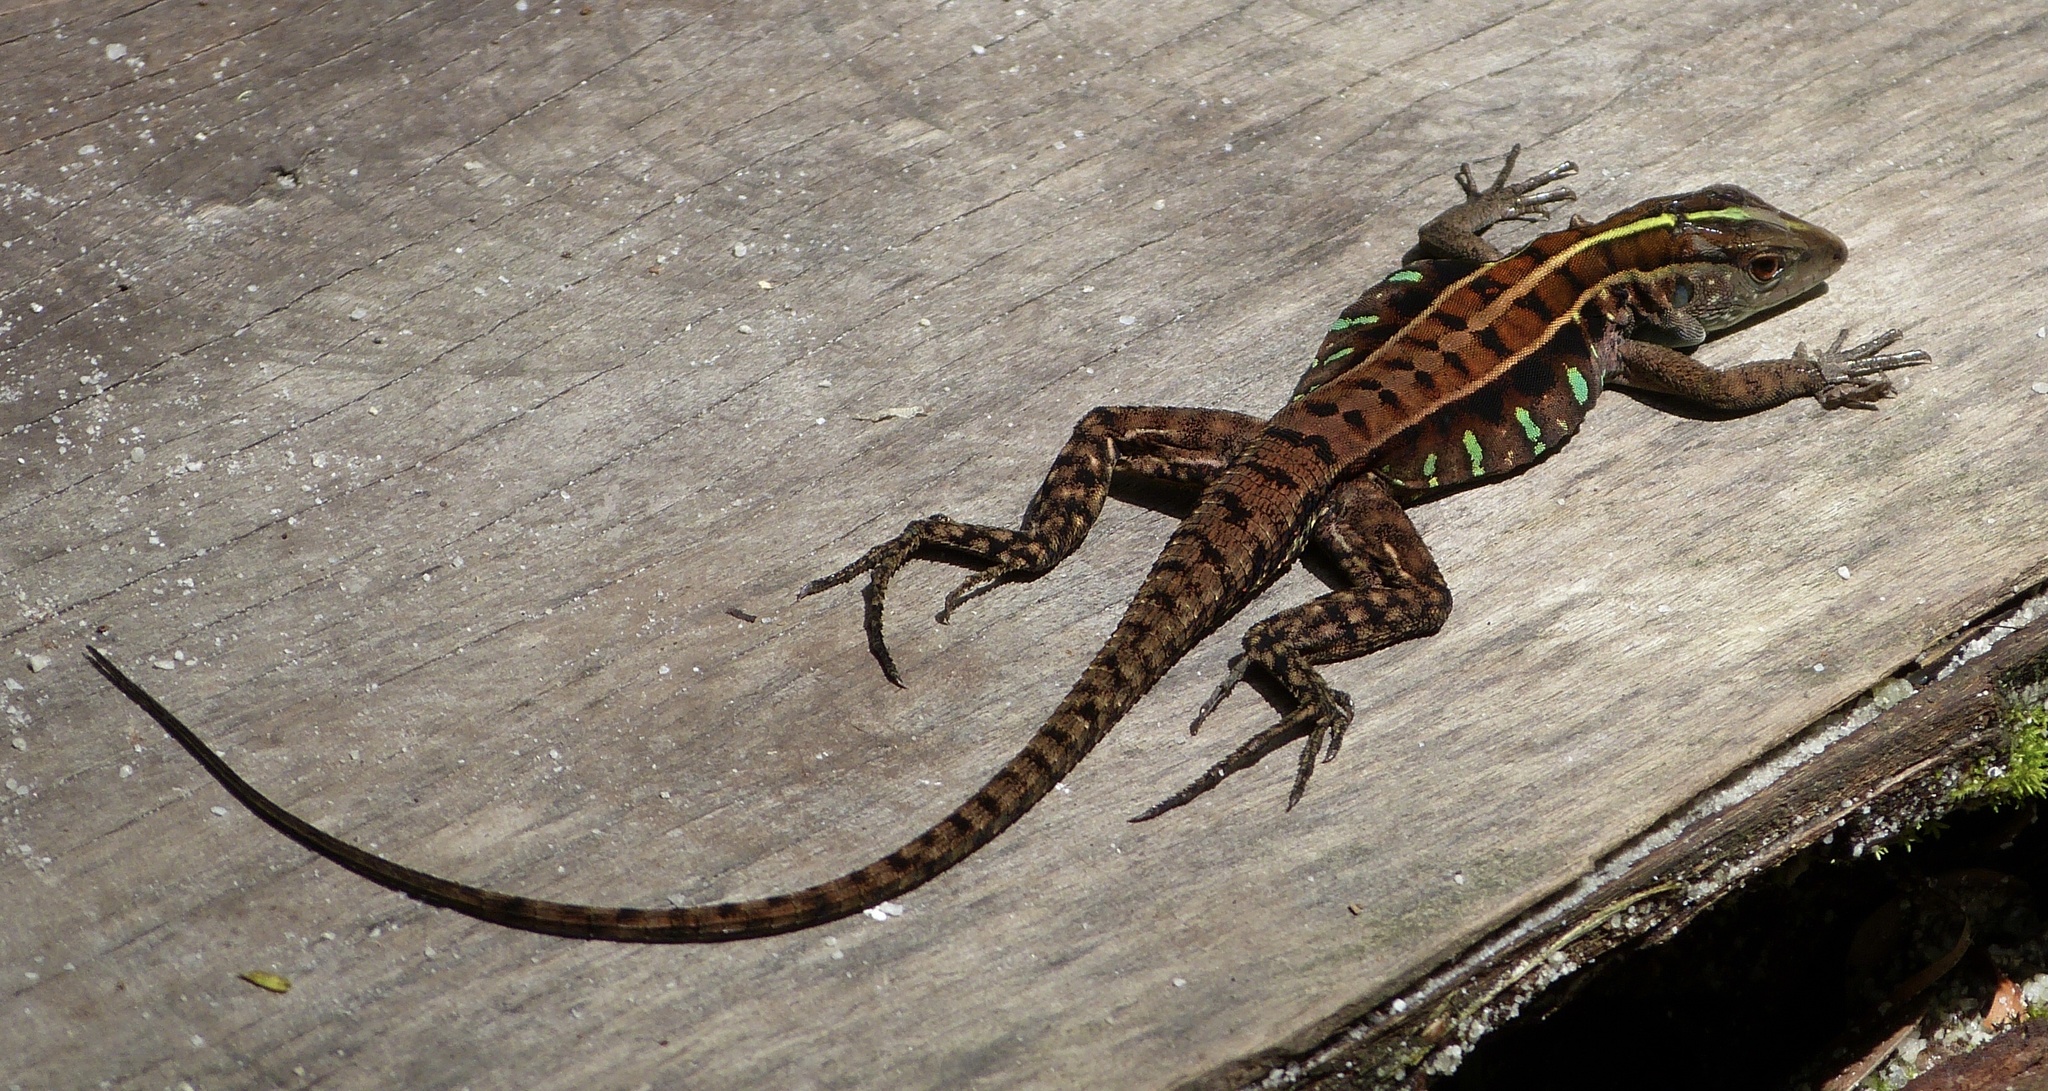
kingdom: Animalia
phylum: Chordata
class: Squamata
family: Teiidae
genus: Kentropyx
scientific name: Kentropyx calcarata
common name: Striped forest whiptail
